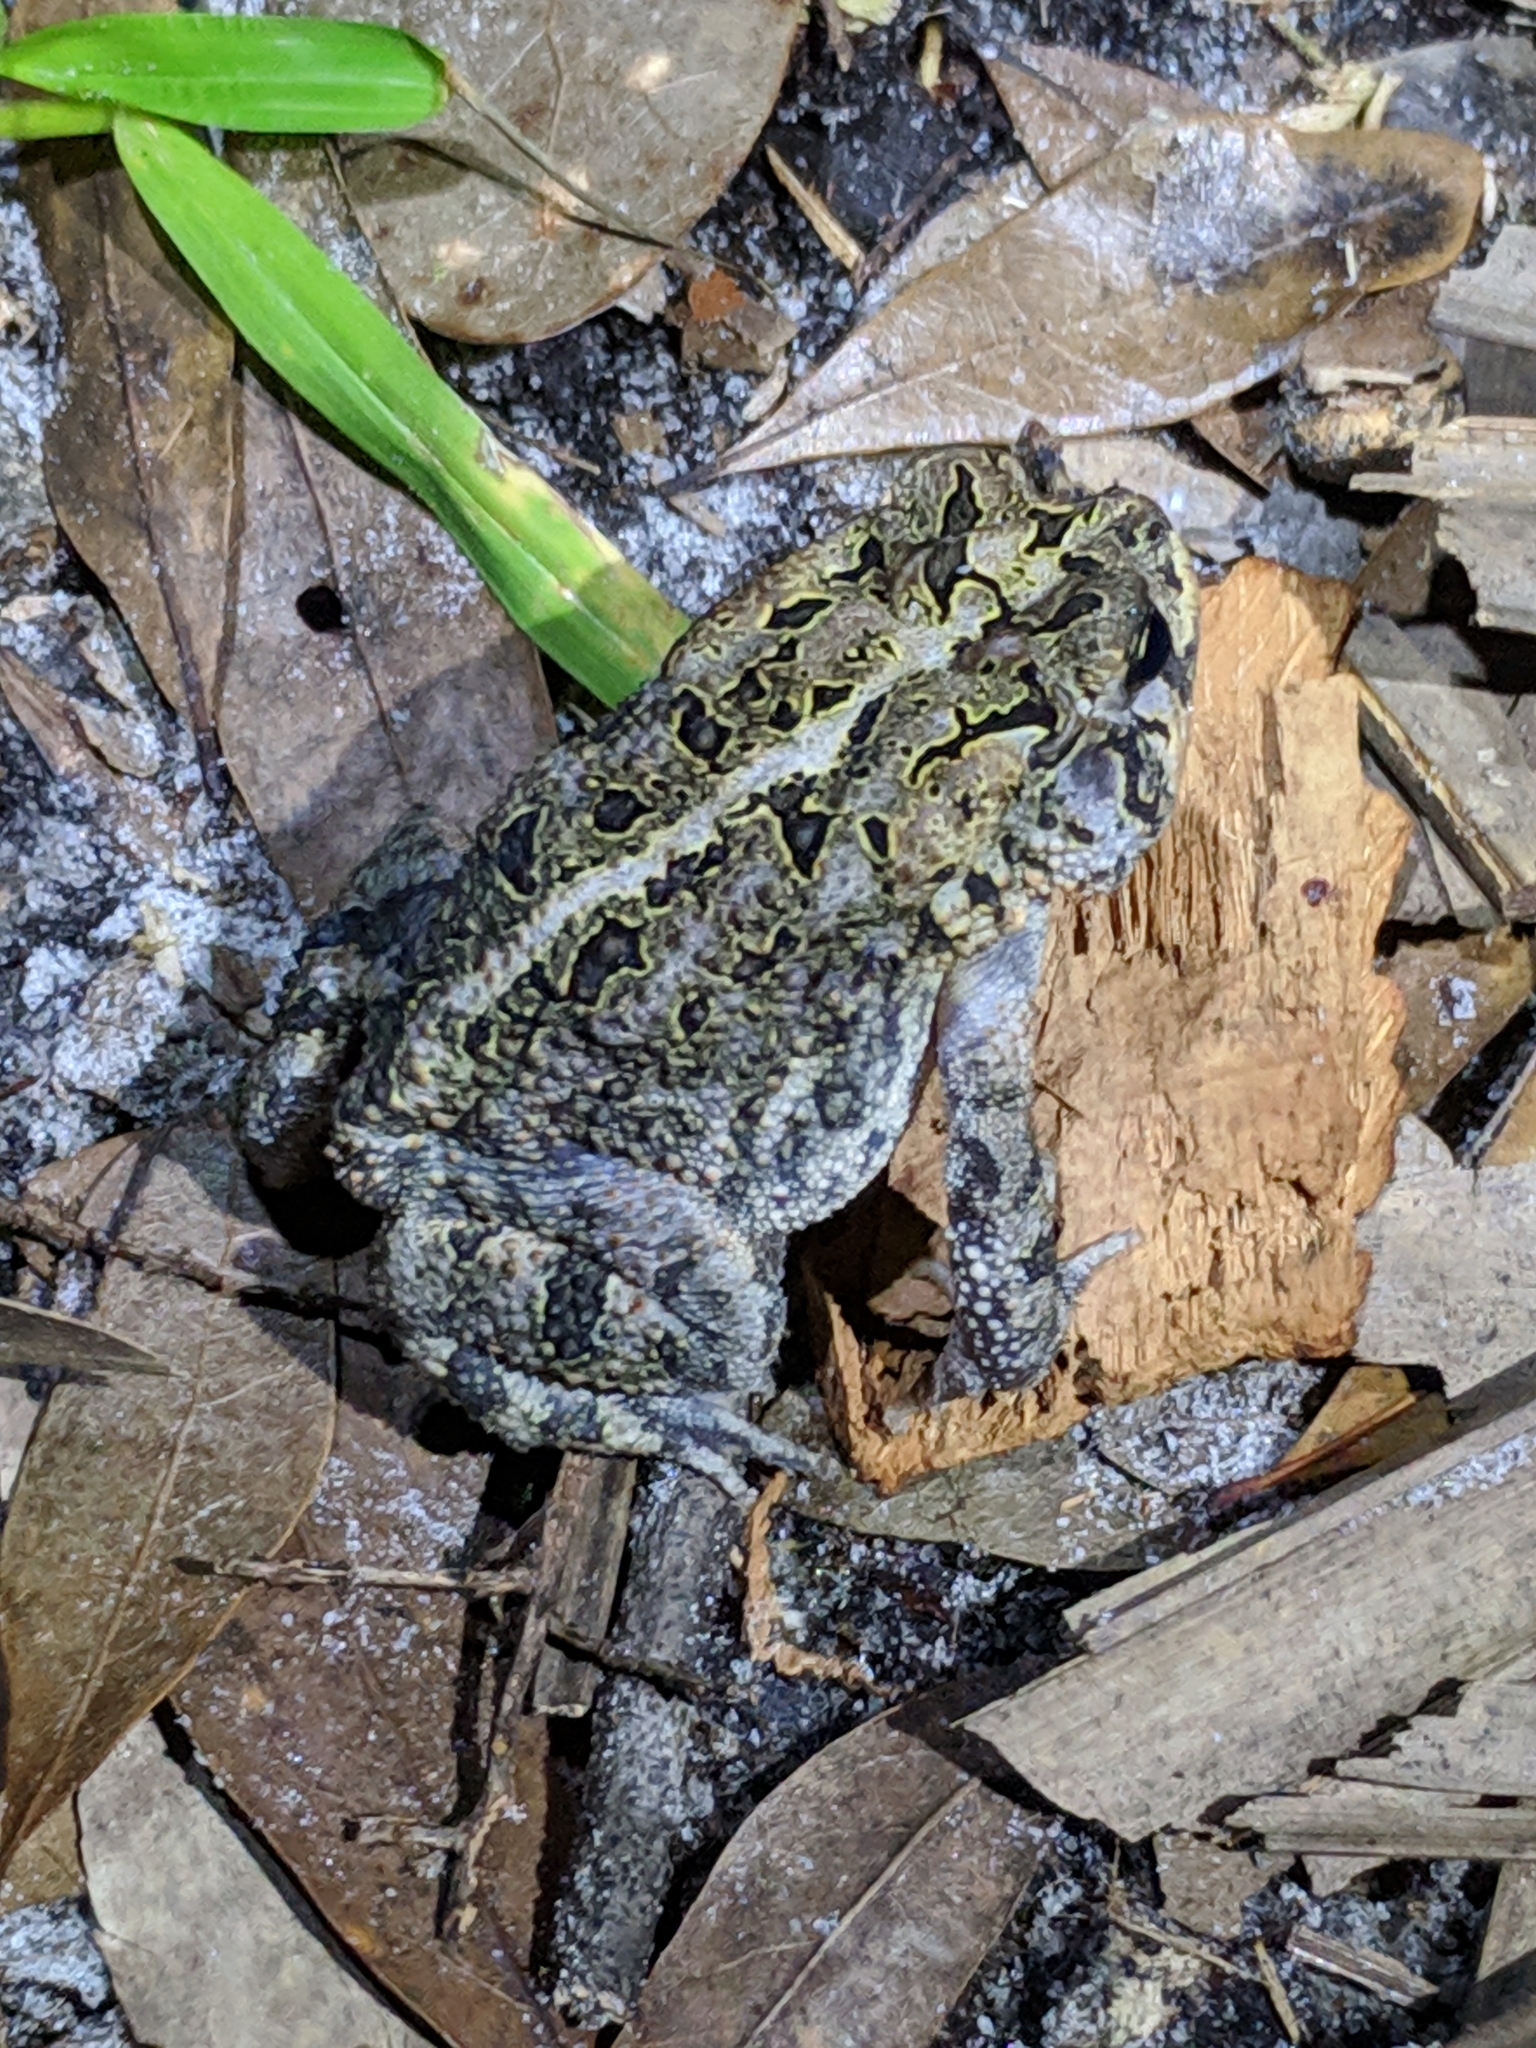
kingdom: Animalia
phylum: Chordata
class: Amphibia
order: Anura
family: Bufonidae
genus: Anaxyrus
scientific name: Anaxyrus terrestris
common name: Southern toad
